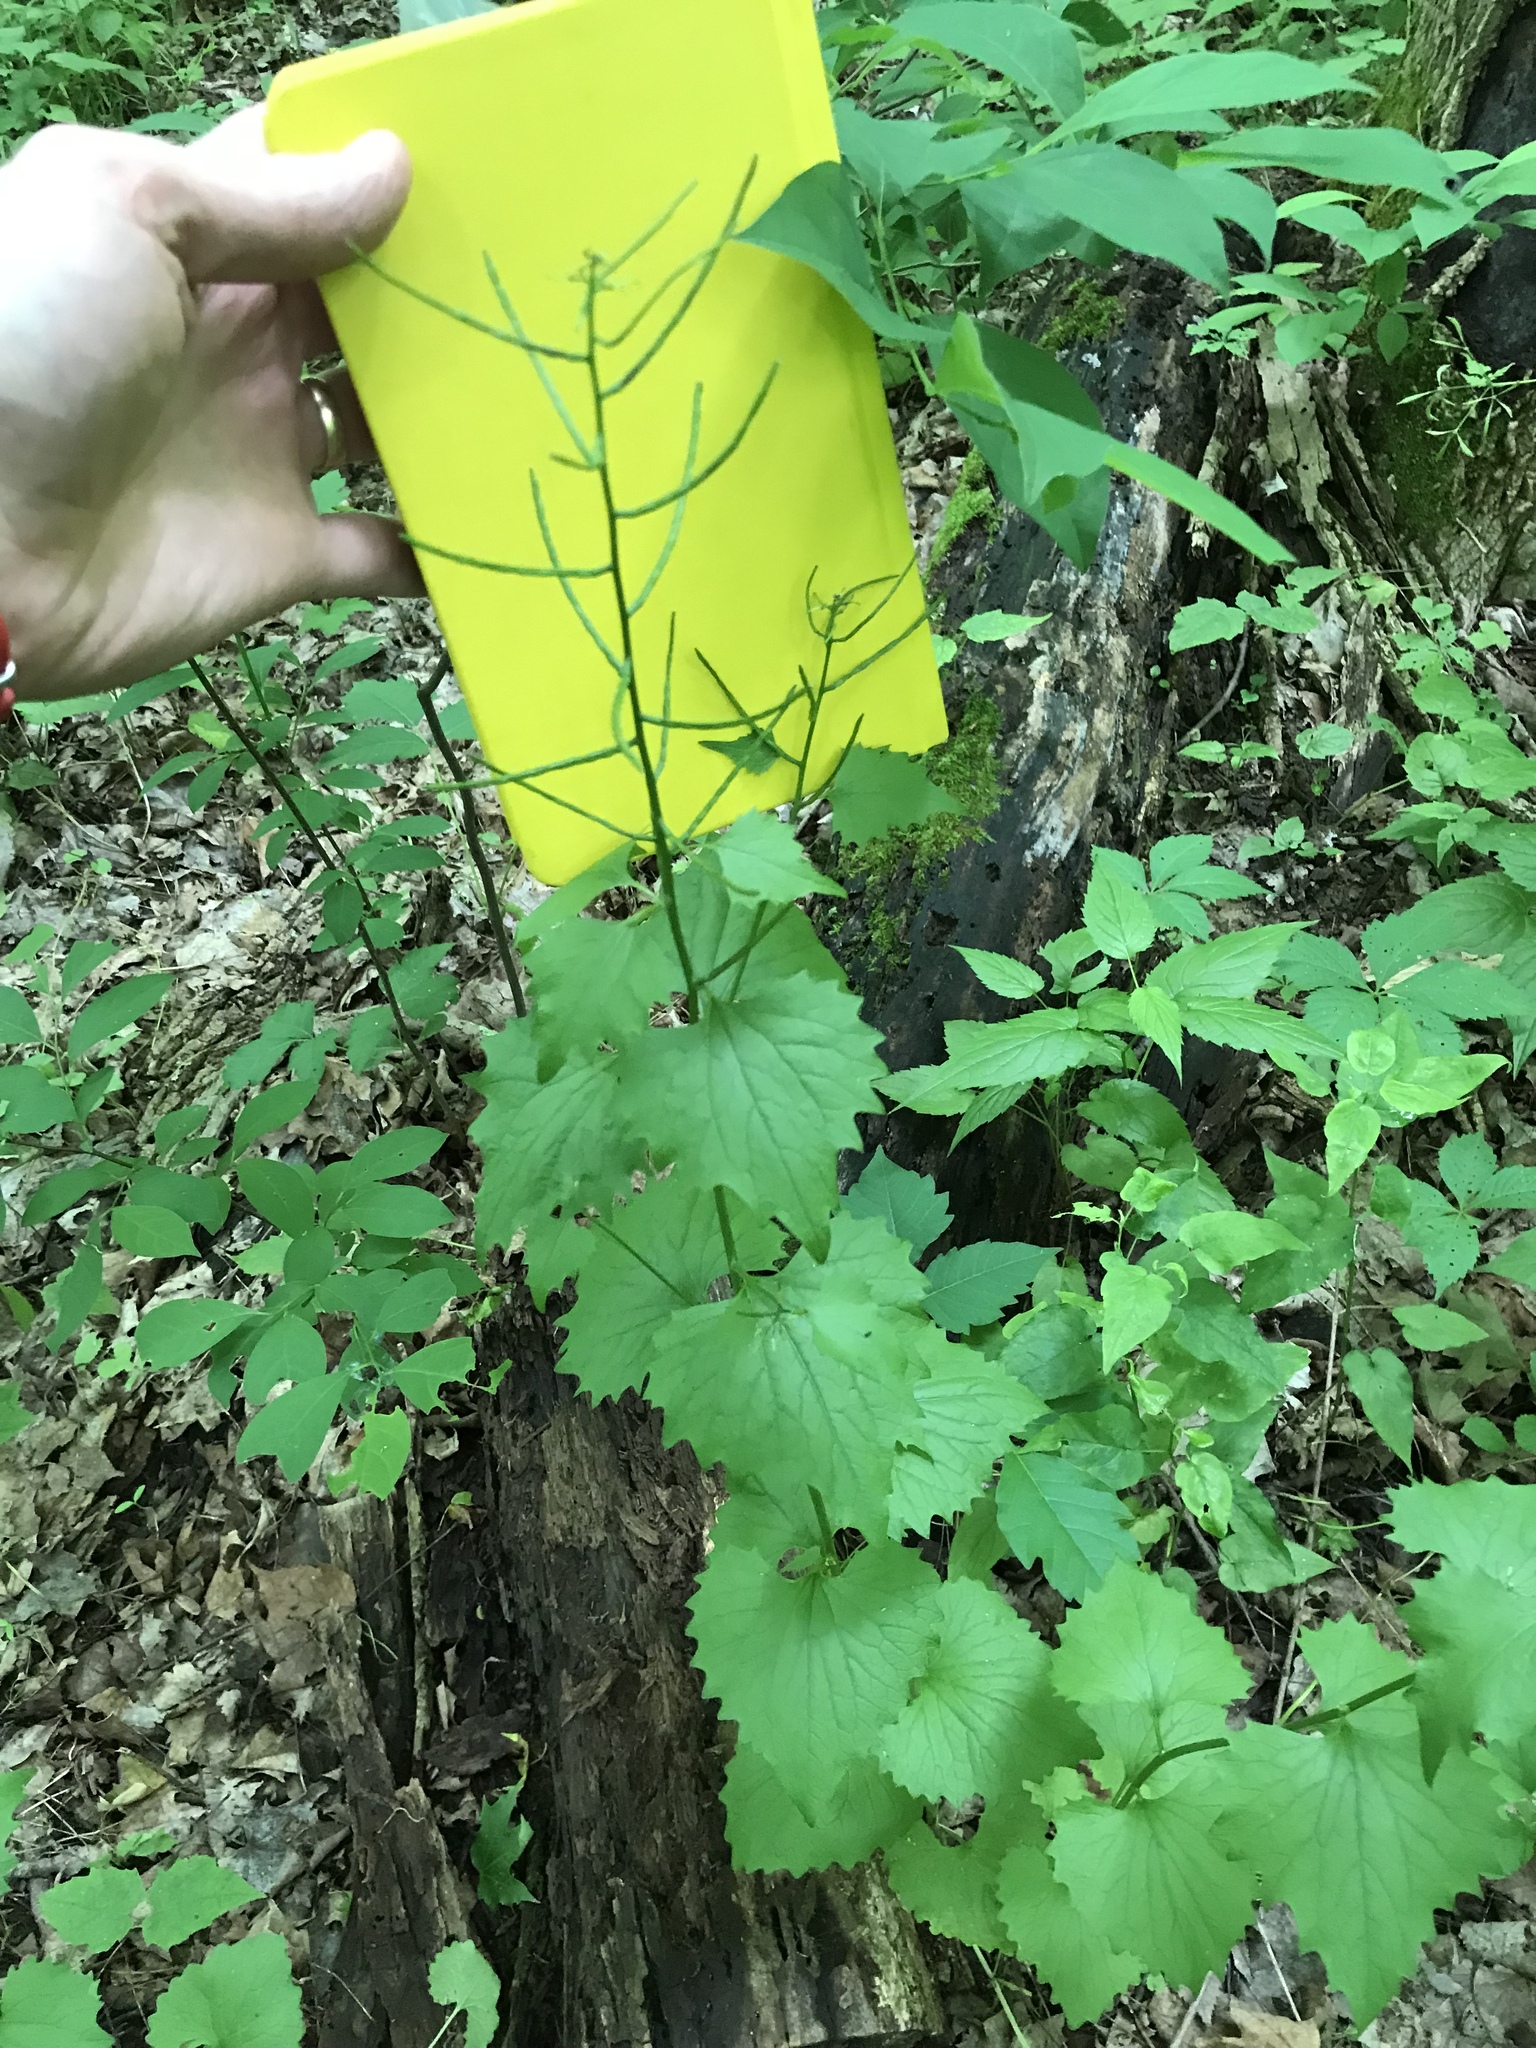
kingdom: Plantae
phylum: Tracheophyta
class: Magnoliopsida
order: Brassicales
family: Brassicaceae
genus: Alliaria
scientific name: Alliaria petiolata
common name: Garlic mustard
